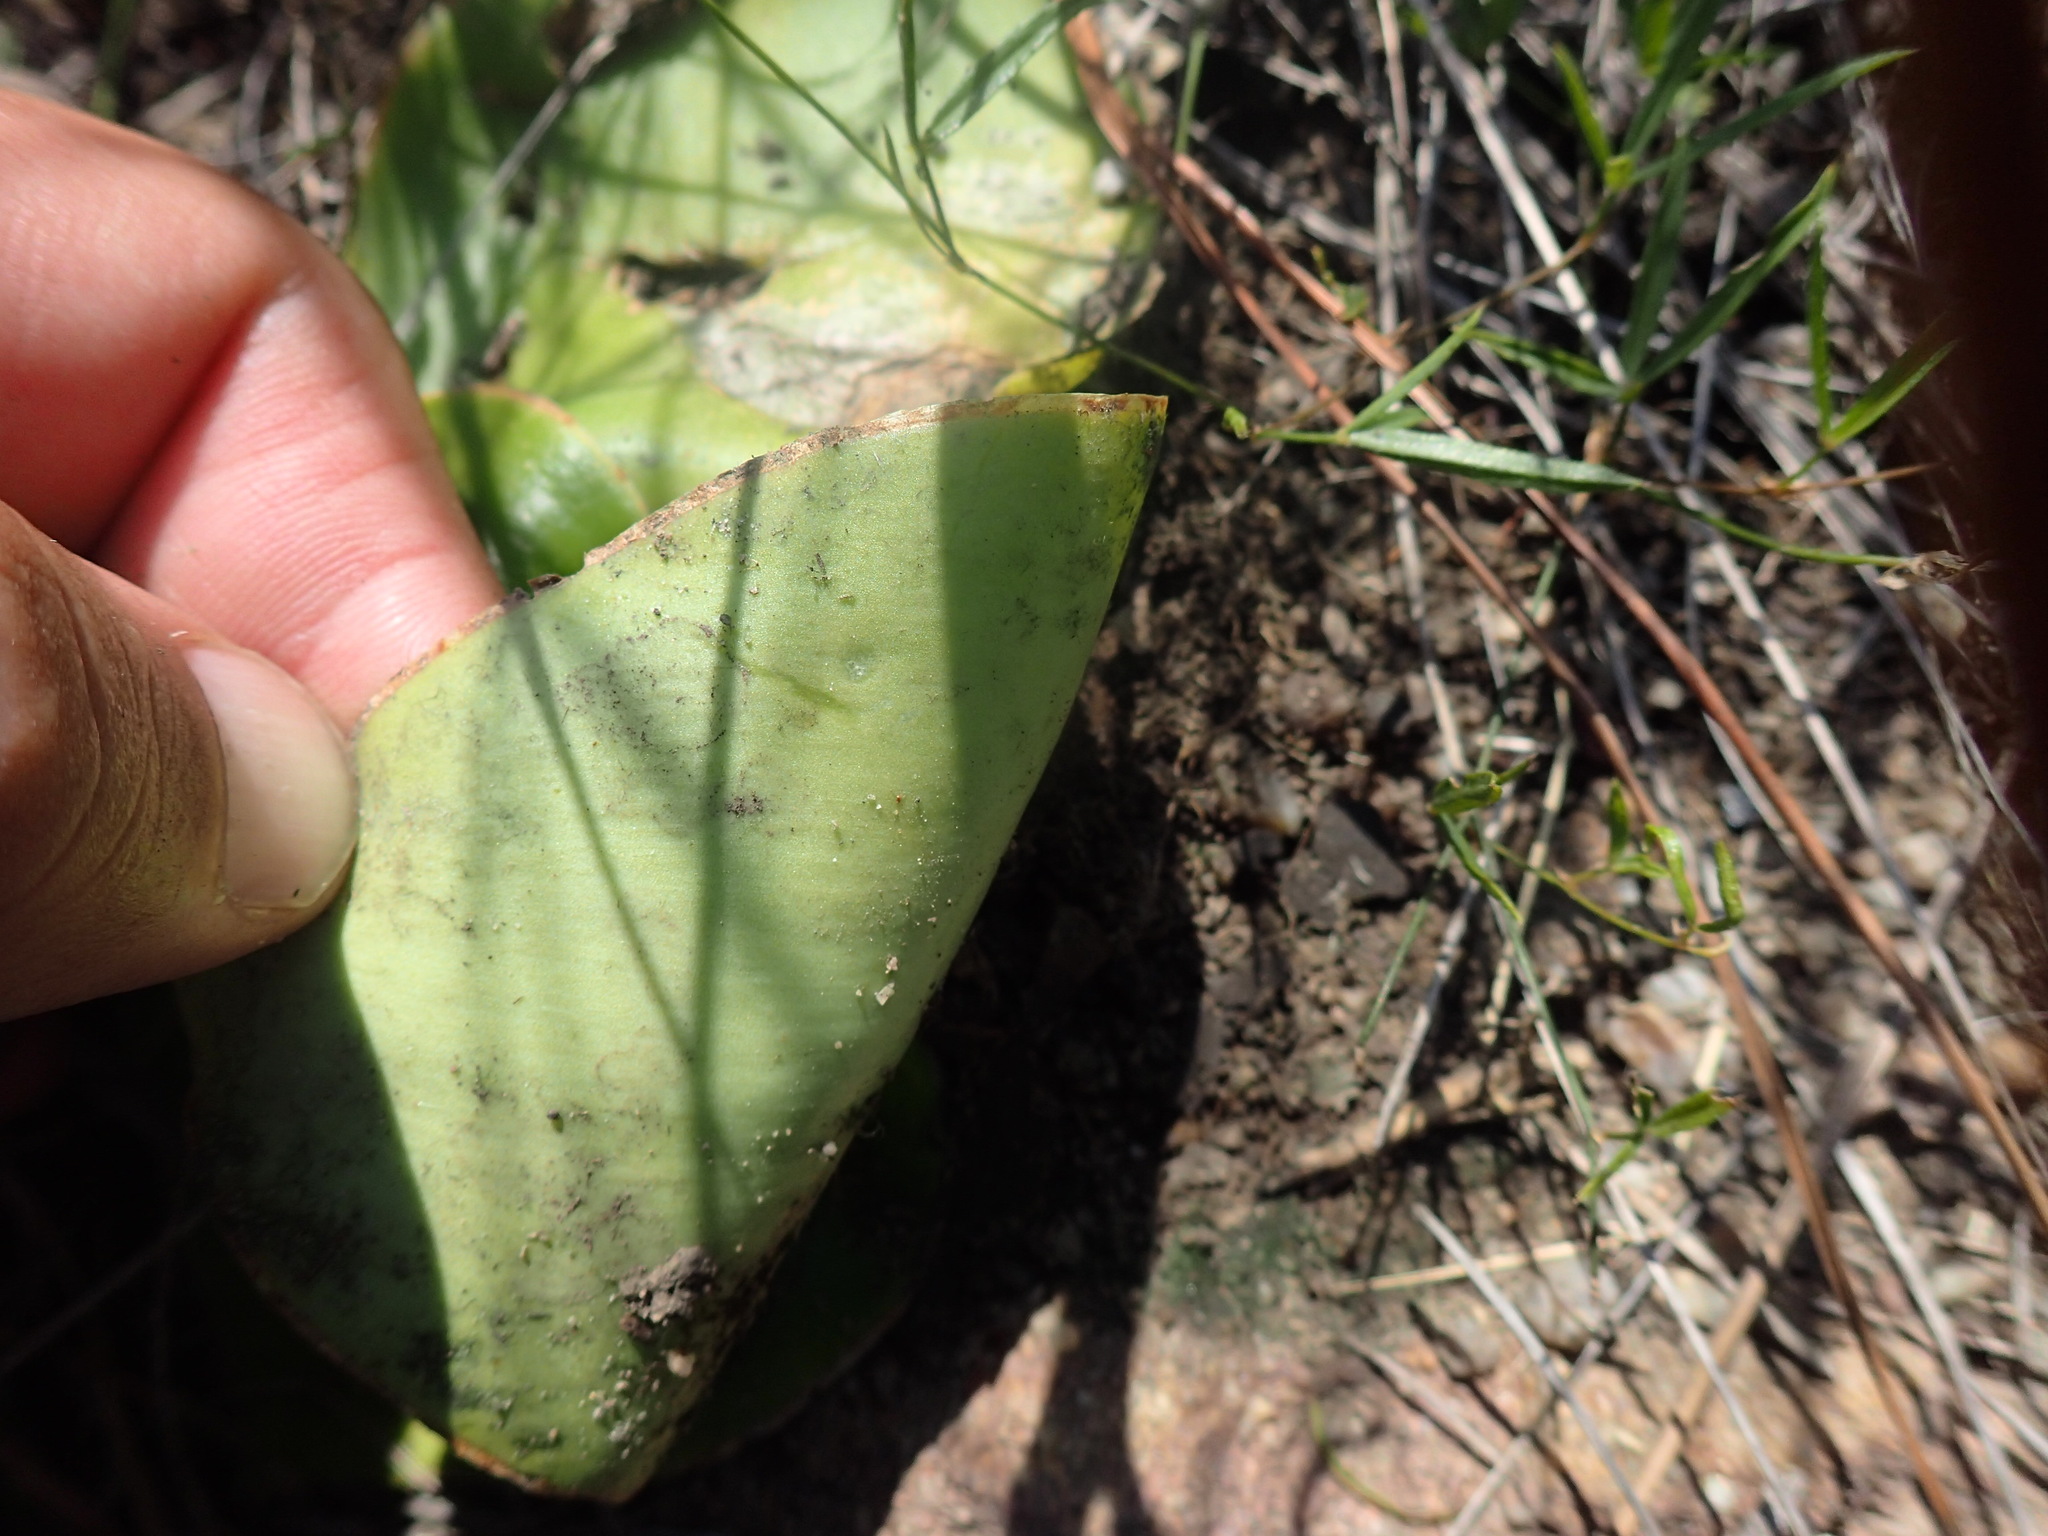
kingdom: Plantae
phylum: Tracheophyta
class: Liliopsida
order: Asparagales
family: Asparagaceae
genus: Ledebouria
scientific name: Ledebouria ovatifolia
